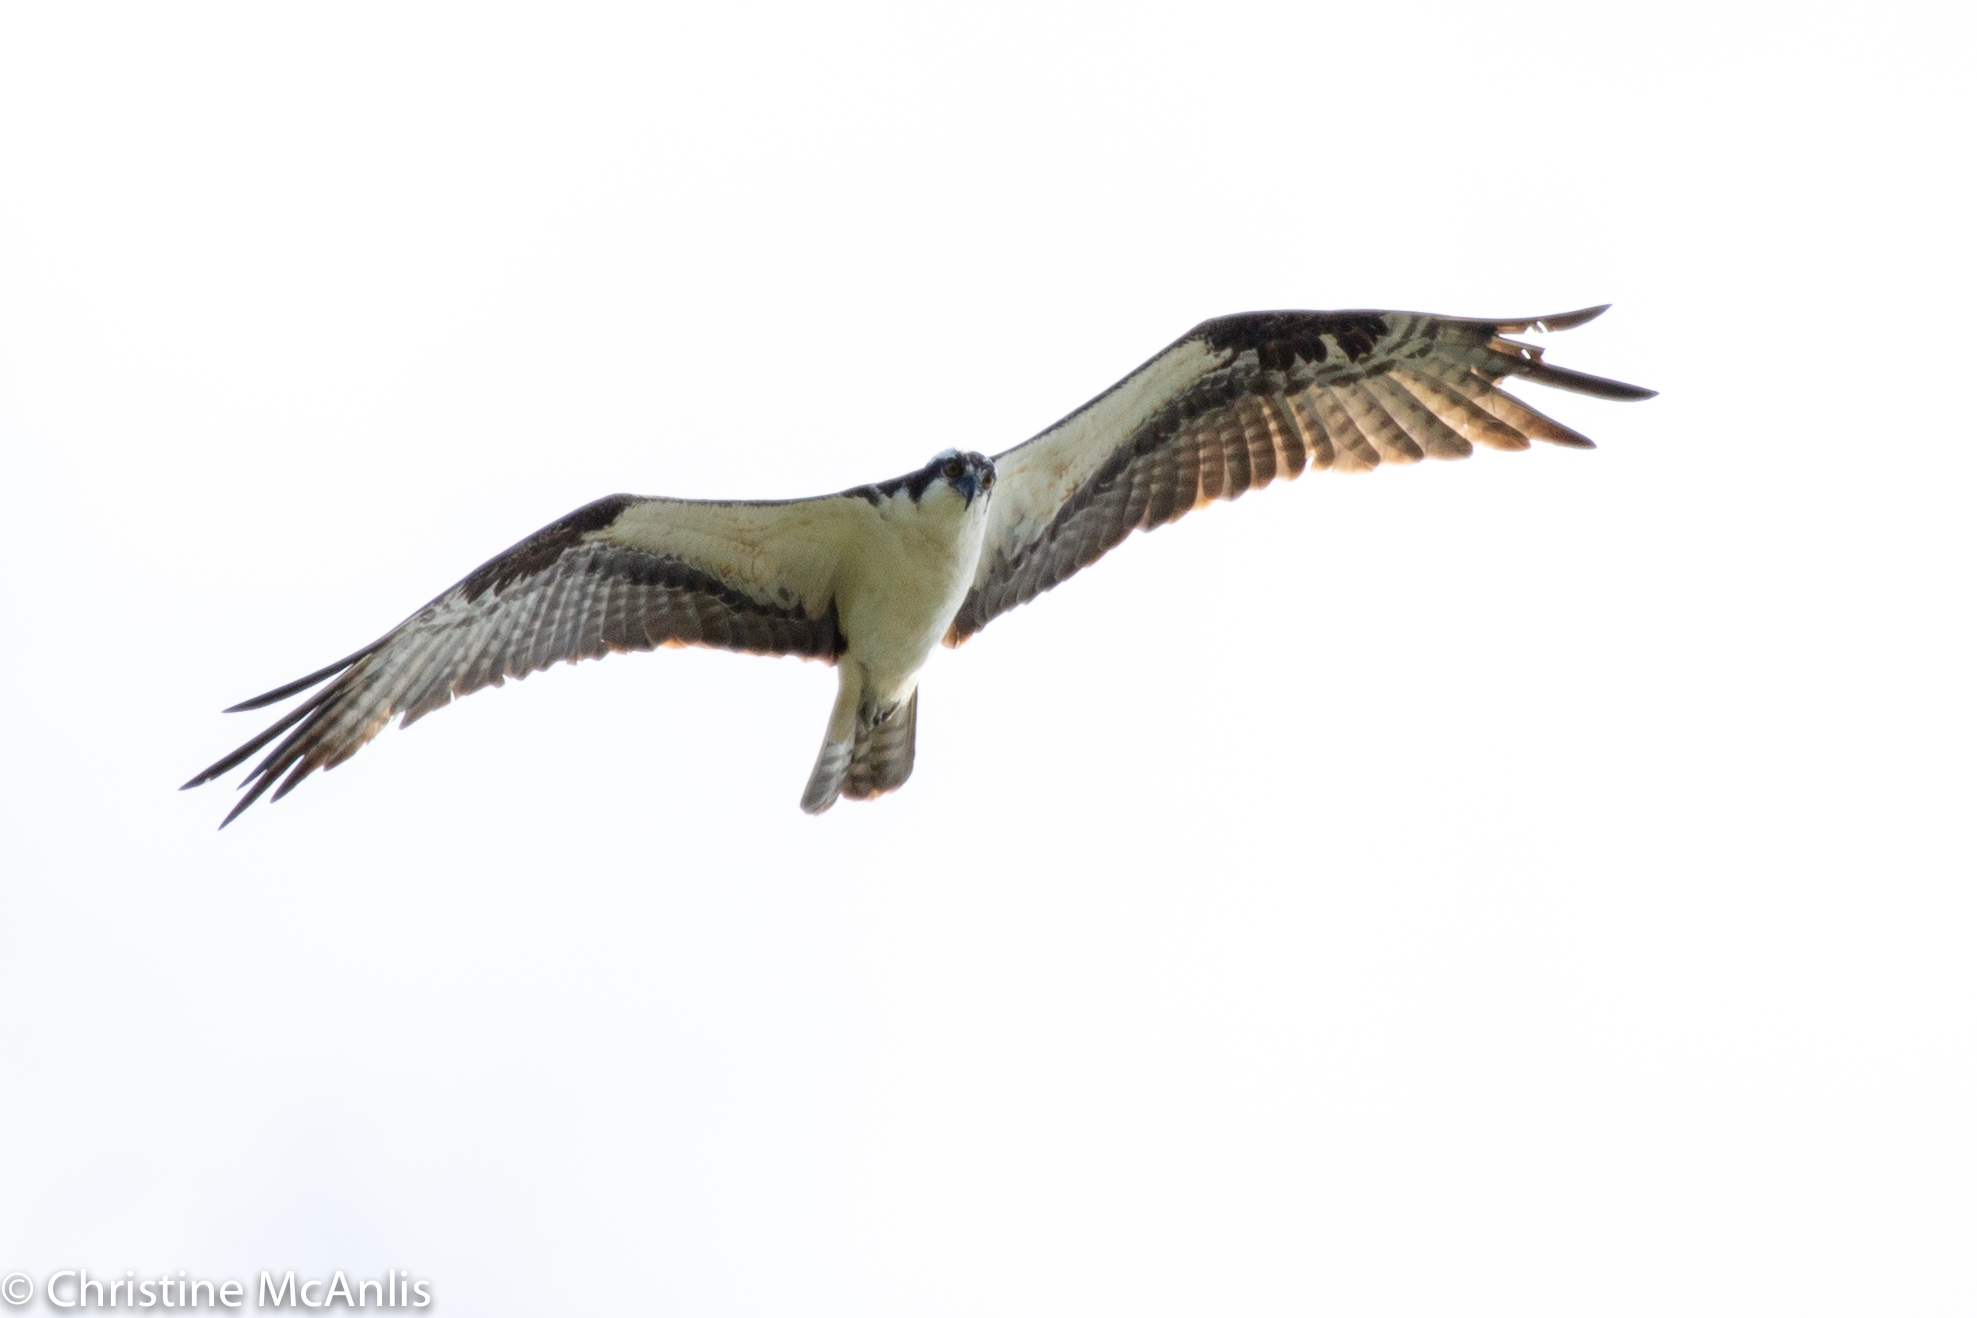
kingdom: Animalia
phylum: Chordata
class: Aves
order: Accipitriformes
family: Pandionidae
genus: Pandion
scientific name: Pandion haliaetus
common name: Osprey
